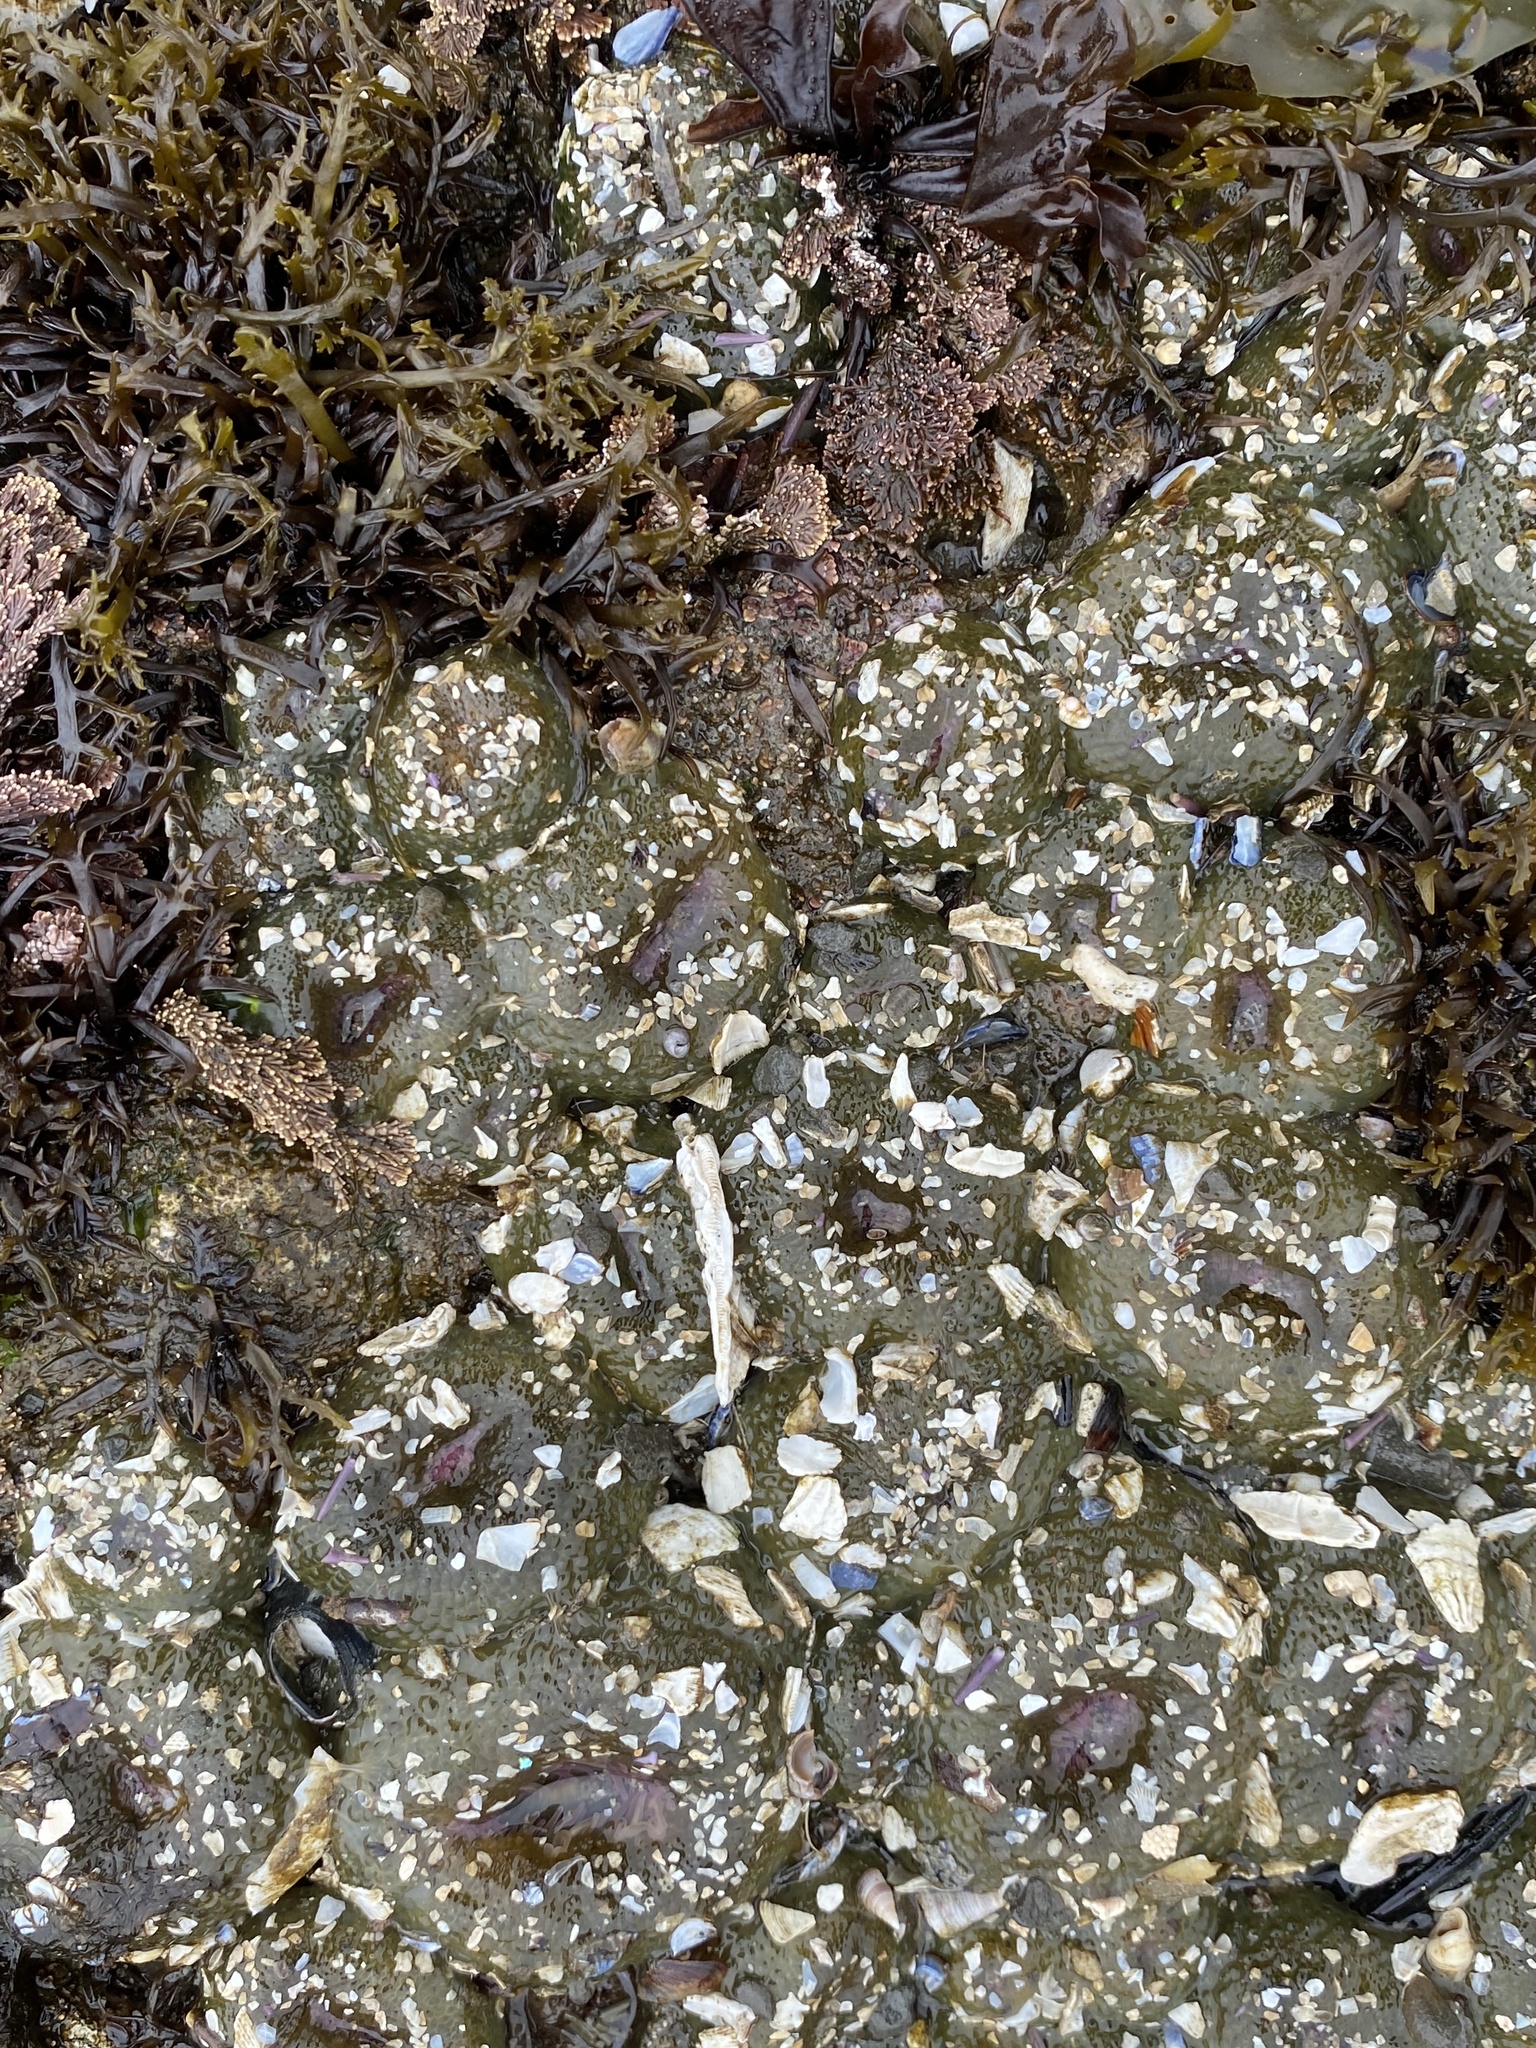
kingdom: Animalia
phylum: Cnidaria
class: Anthozoa
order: Actiniaria
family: Actiniidae
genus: Anthopleura
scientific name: Anthopleura elegantissima
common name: Clonal anemone
